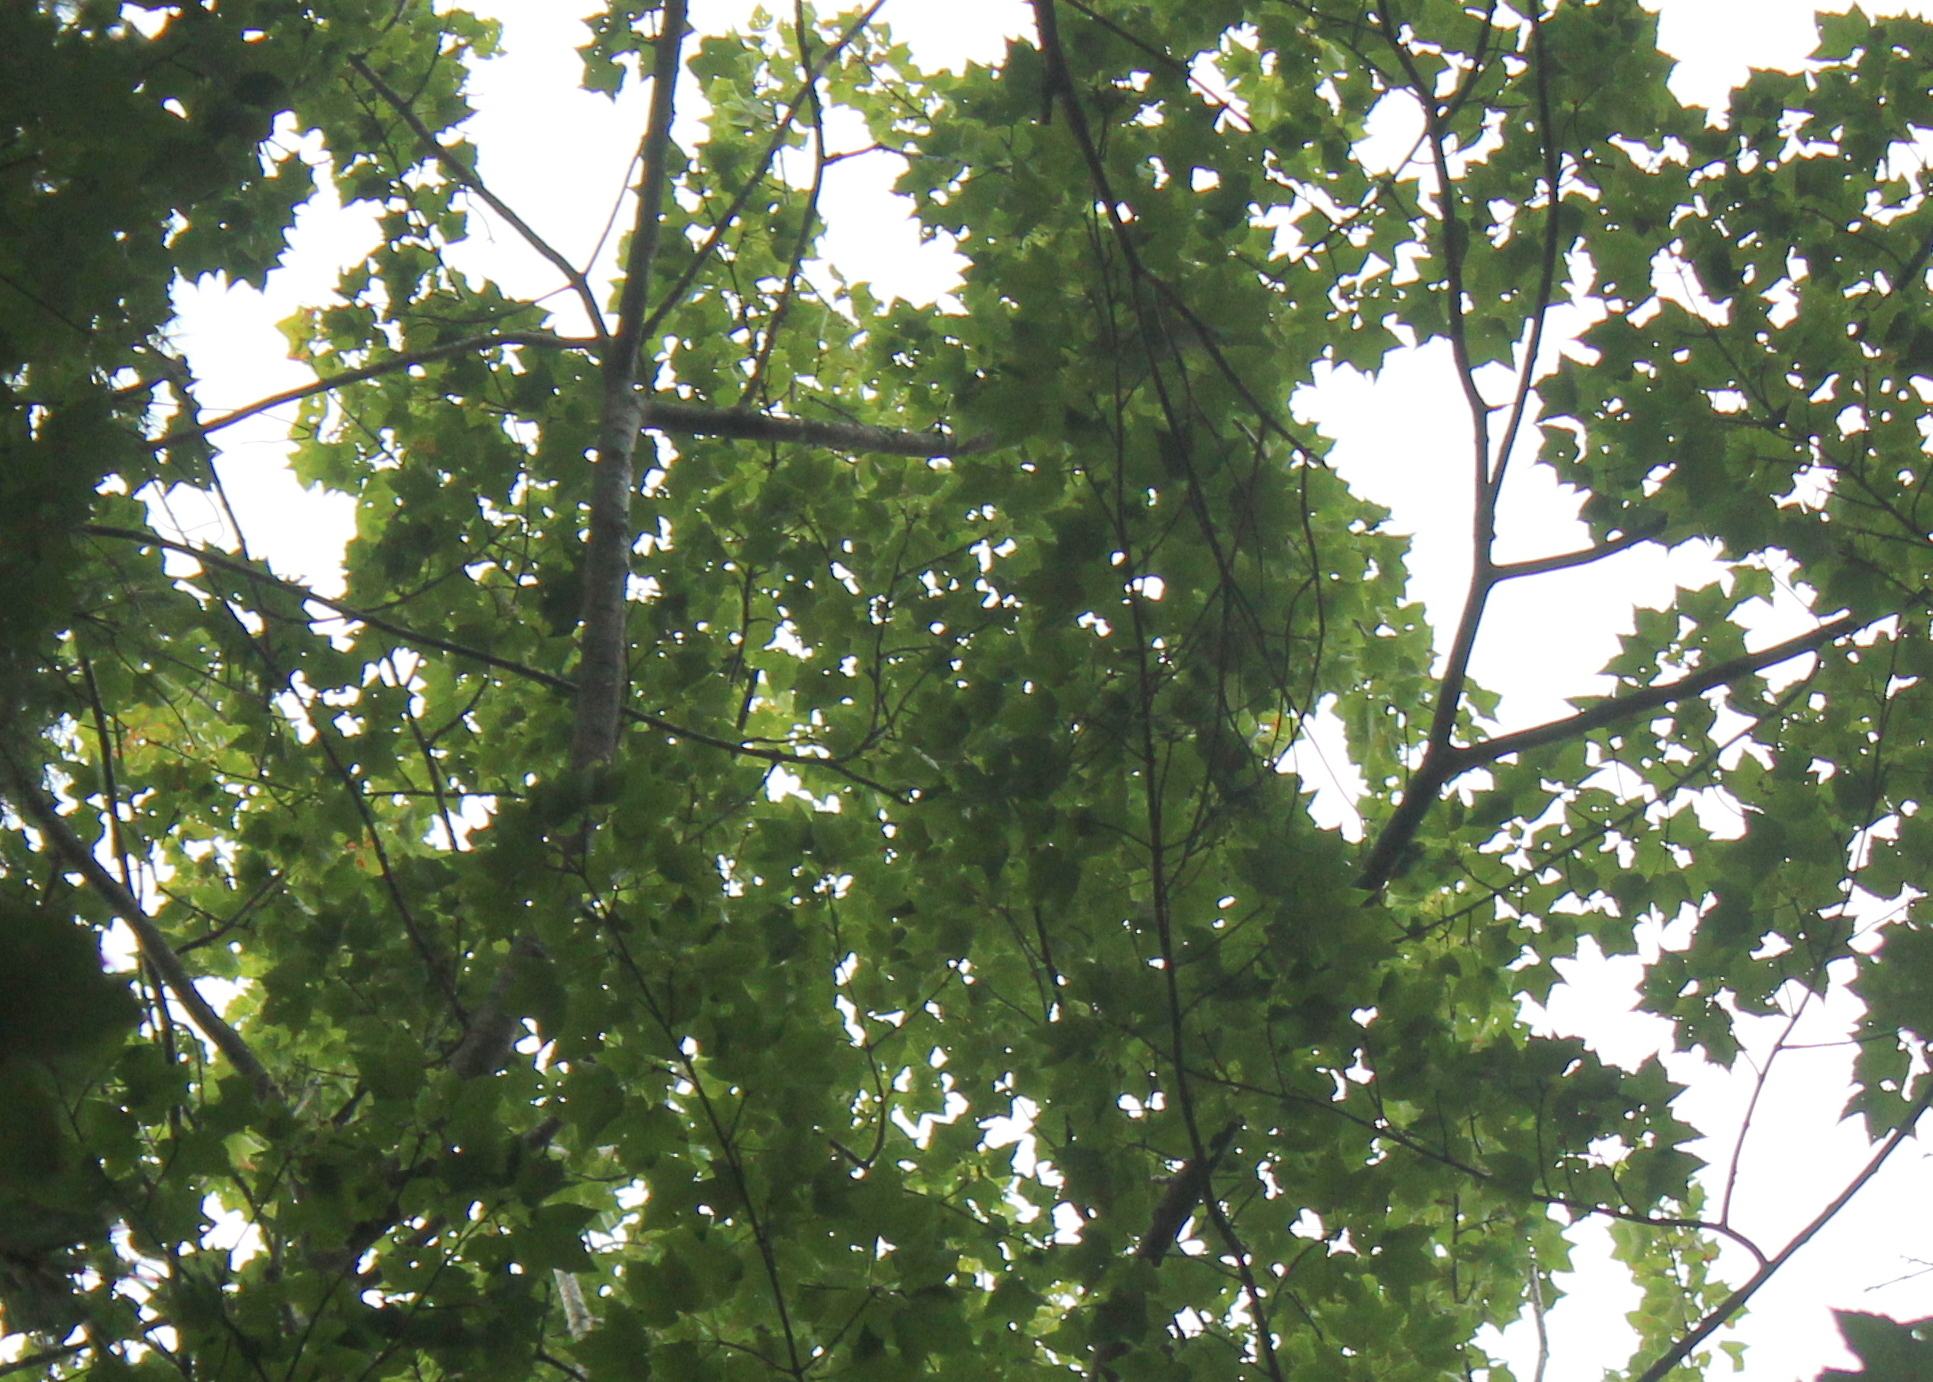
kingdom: Plantae
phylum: Tracheophyta
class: Magnoliopsida
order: Sapindales
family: Sapindaceae
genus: Acer
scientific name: Acer rubrum
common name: Red maple
